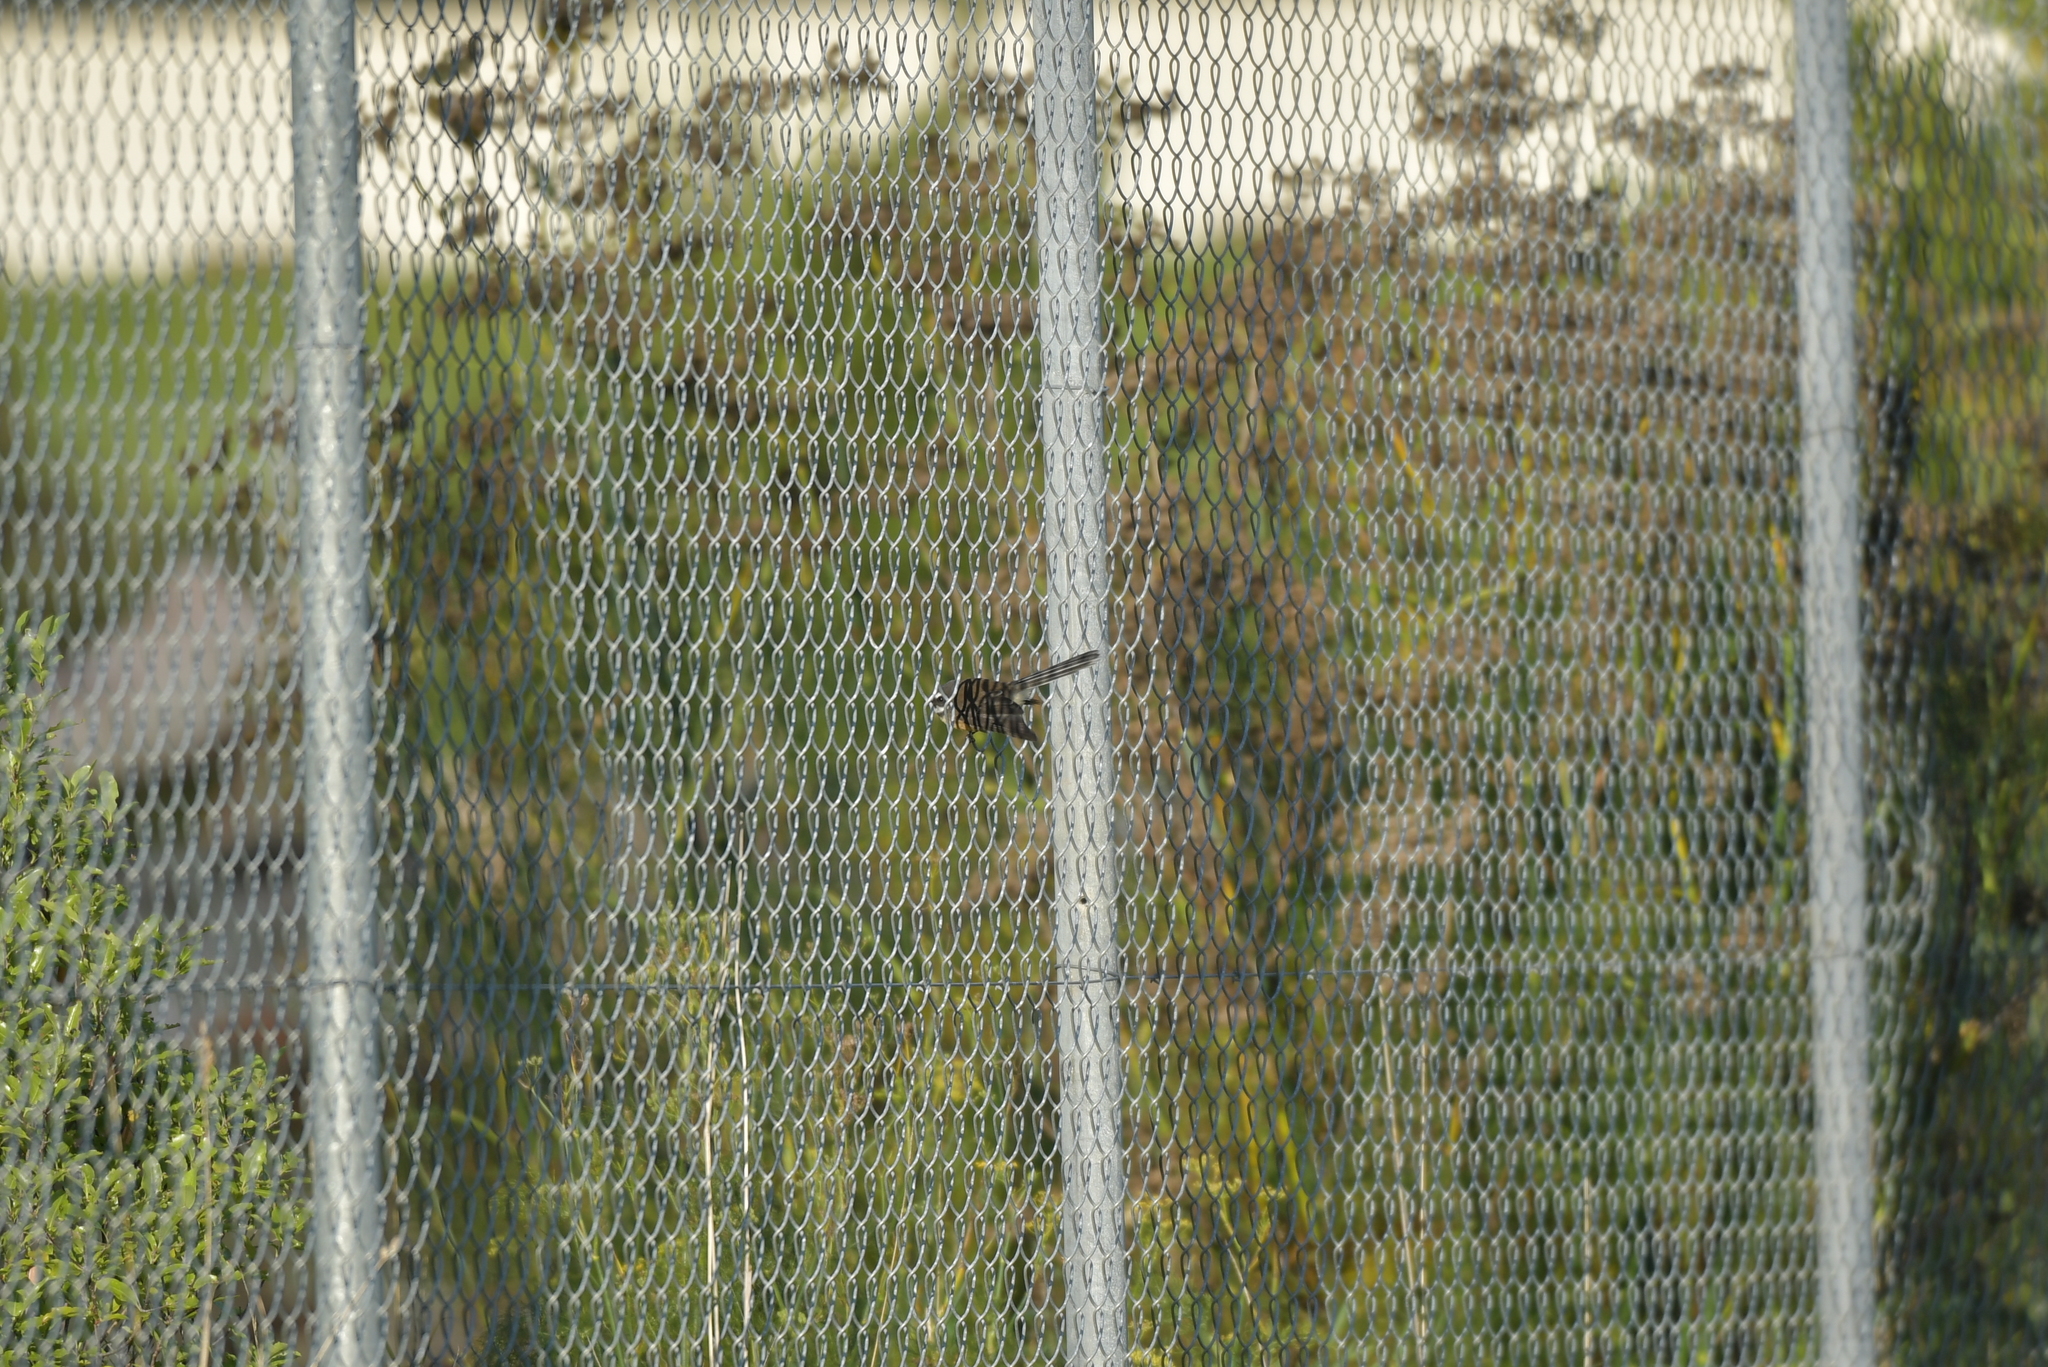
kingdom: Animalia
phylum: Chordata
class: Aves
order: Passeriformes
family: Rhipiduridae
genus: Rhipidura
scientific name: Rhipidura fuliginosa
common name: New zealand fantail
